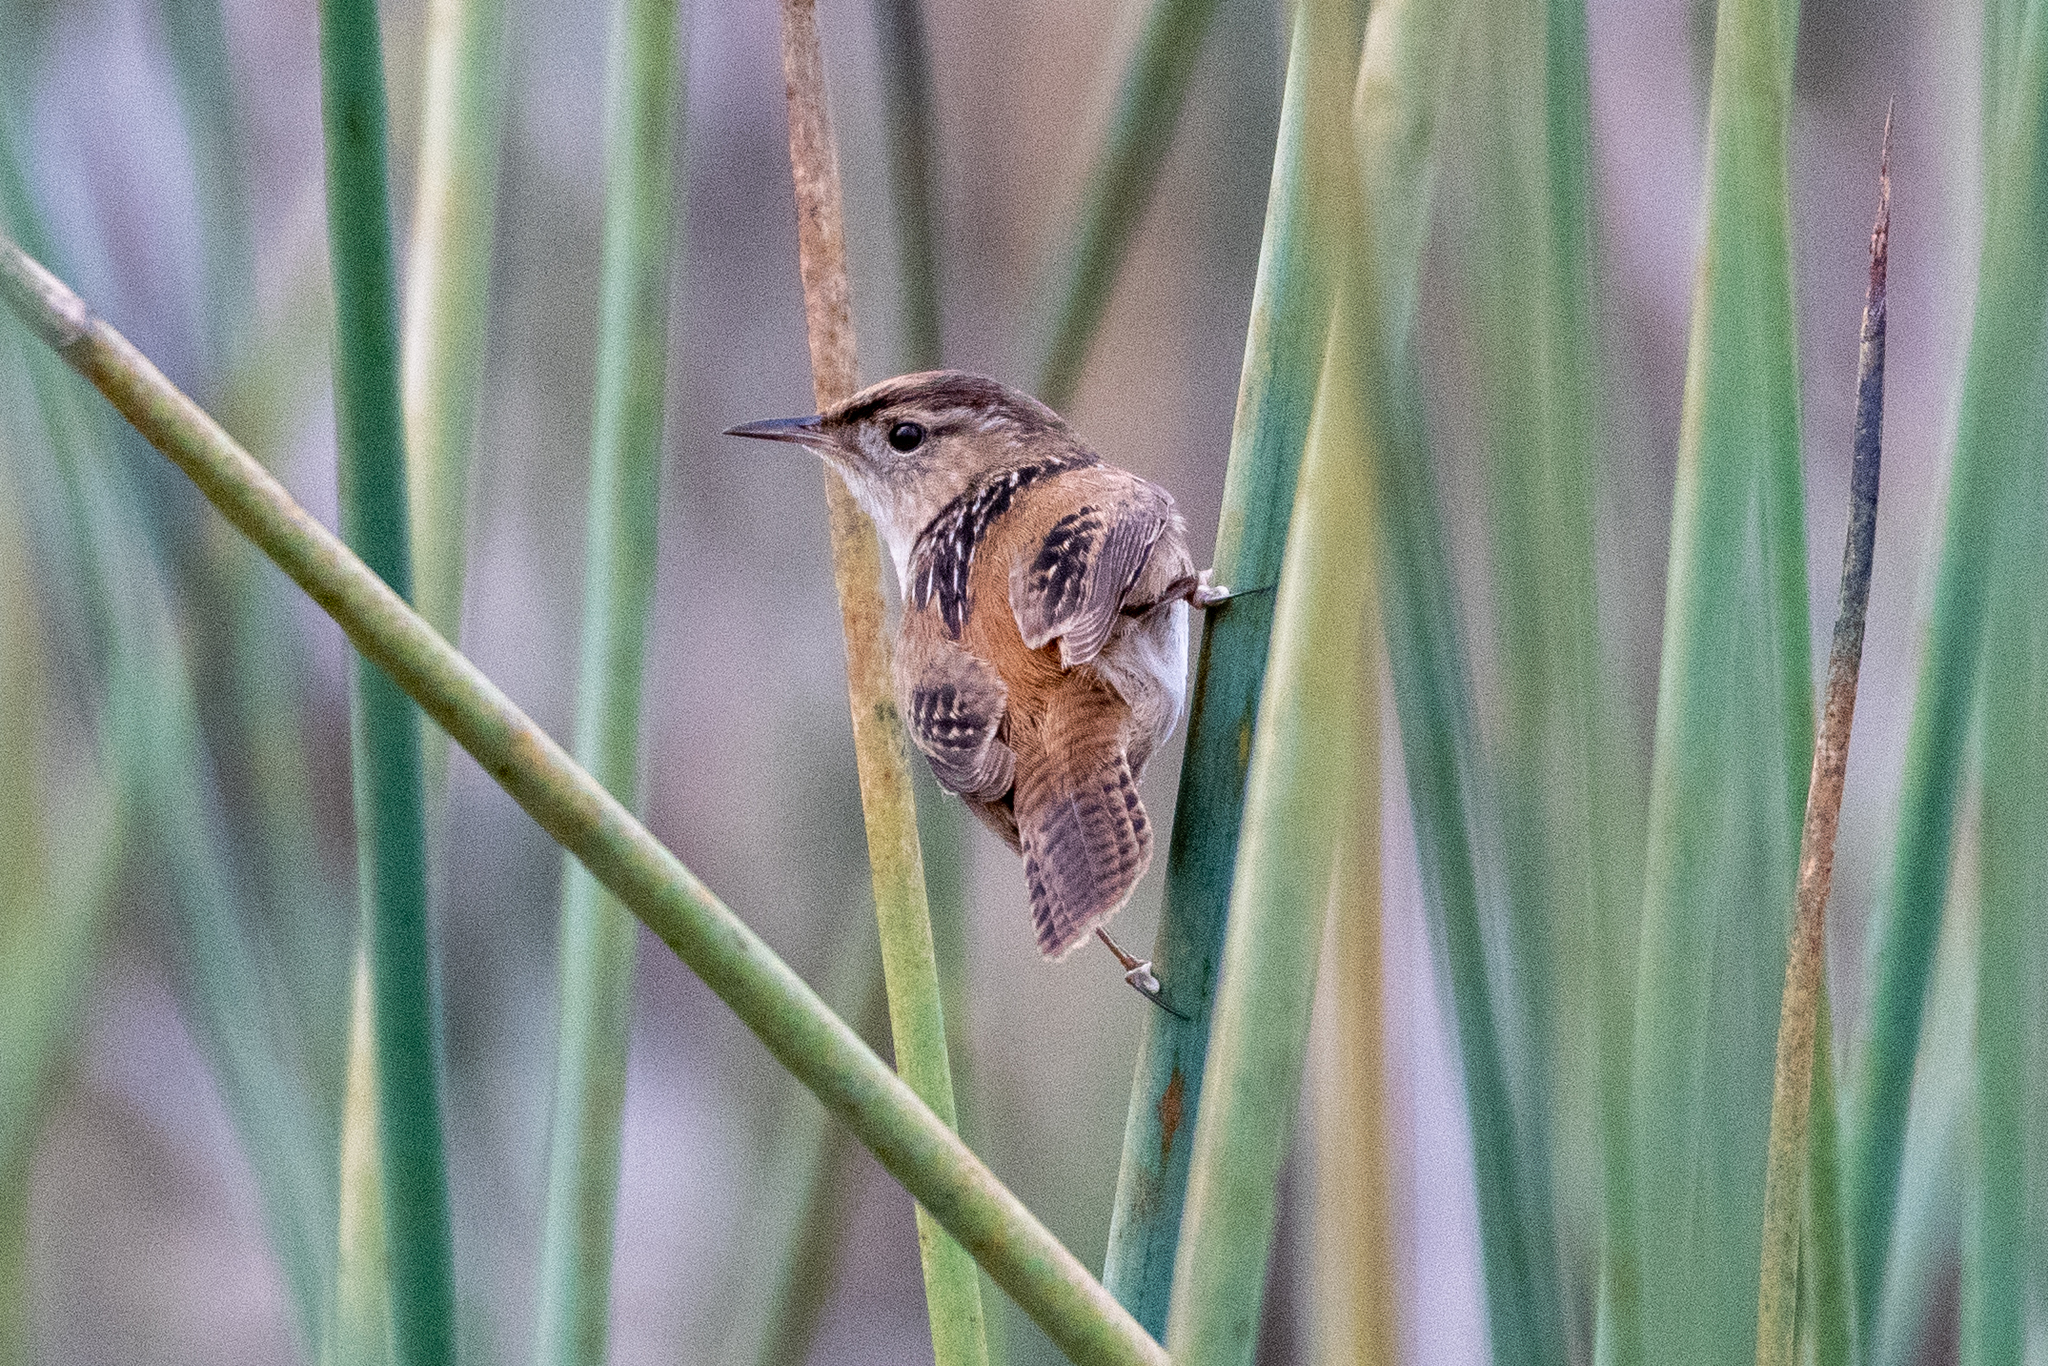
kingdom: Animalia
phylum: Chordata
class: Aves
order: Passeriformes
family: Troglodytidae
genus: Cistothorus
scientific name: Cistothorus palustris
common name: Marsh wren
